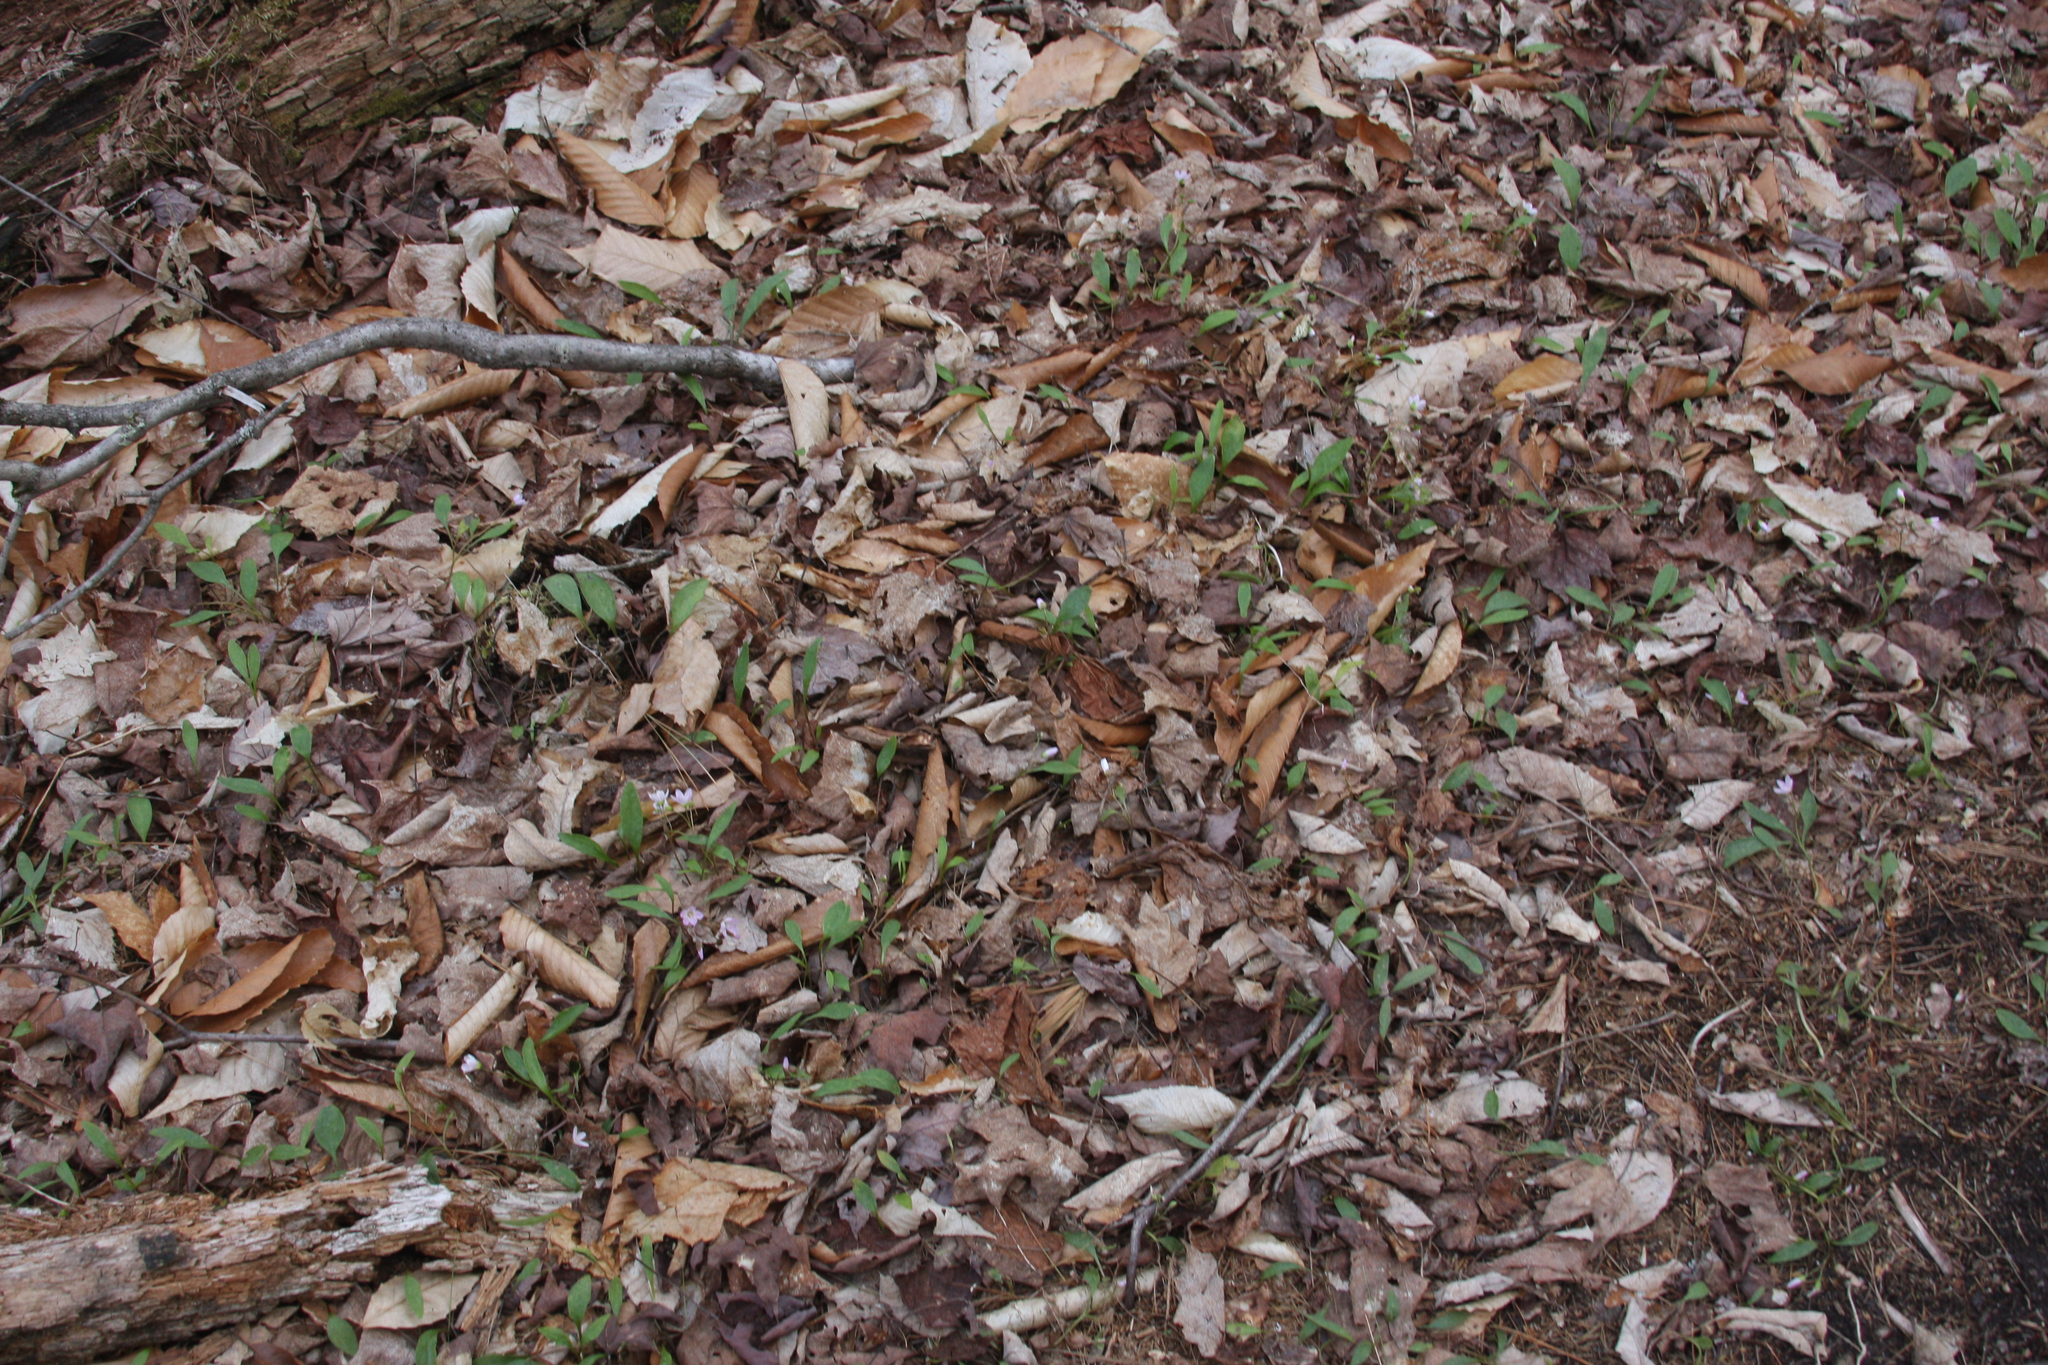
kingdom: Plantae
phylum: Tracheophyta
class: Magnoliopsida
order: Caryophyllales
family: Montiaceae
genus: Claytonia
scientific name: Claytonia caroliniana
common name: Carolina spring beauty
